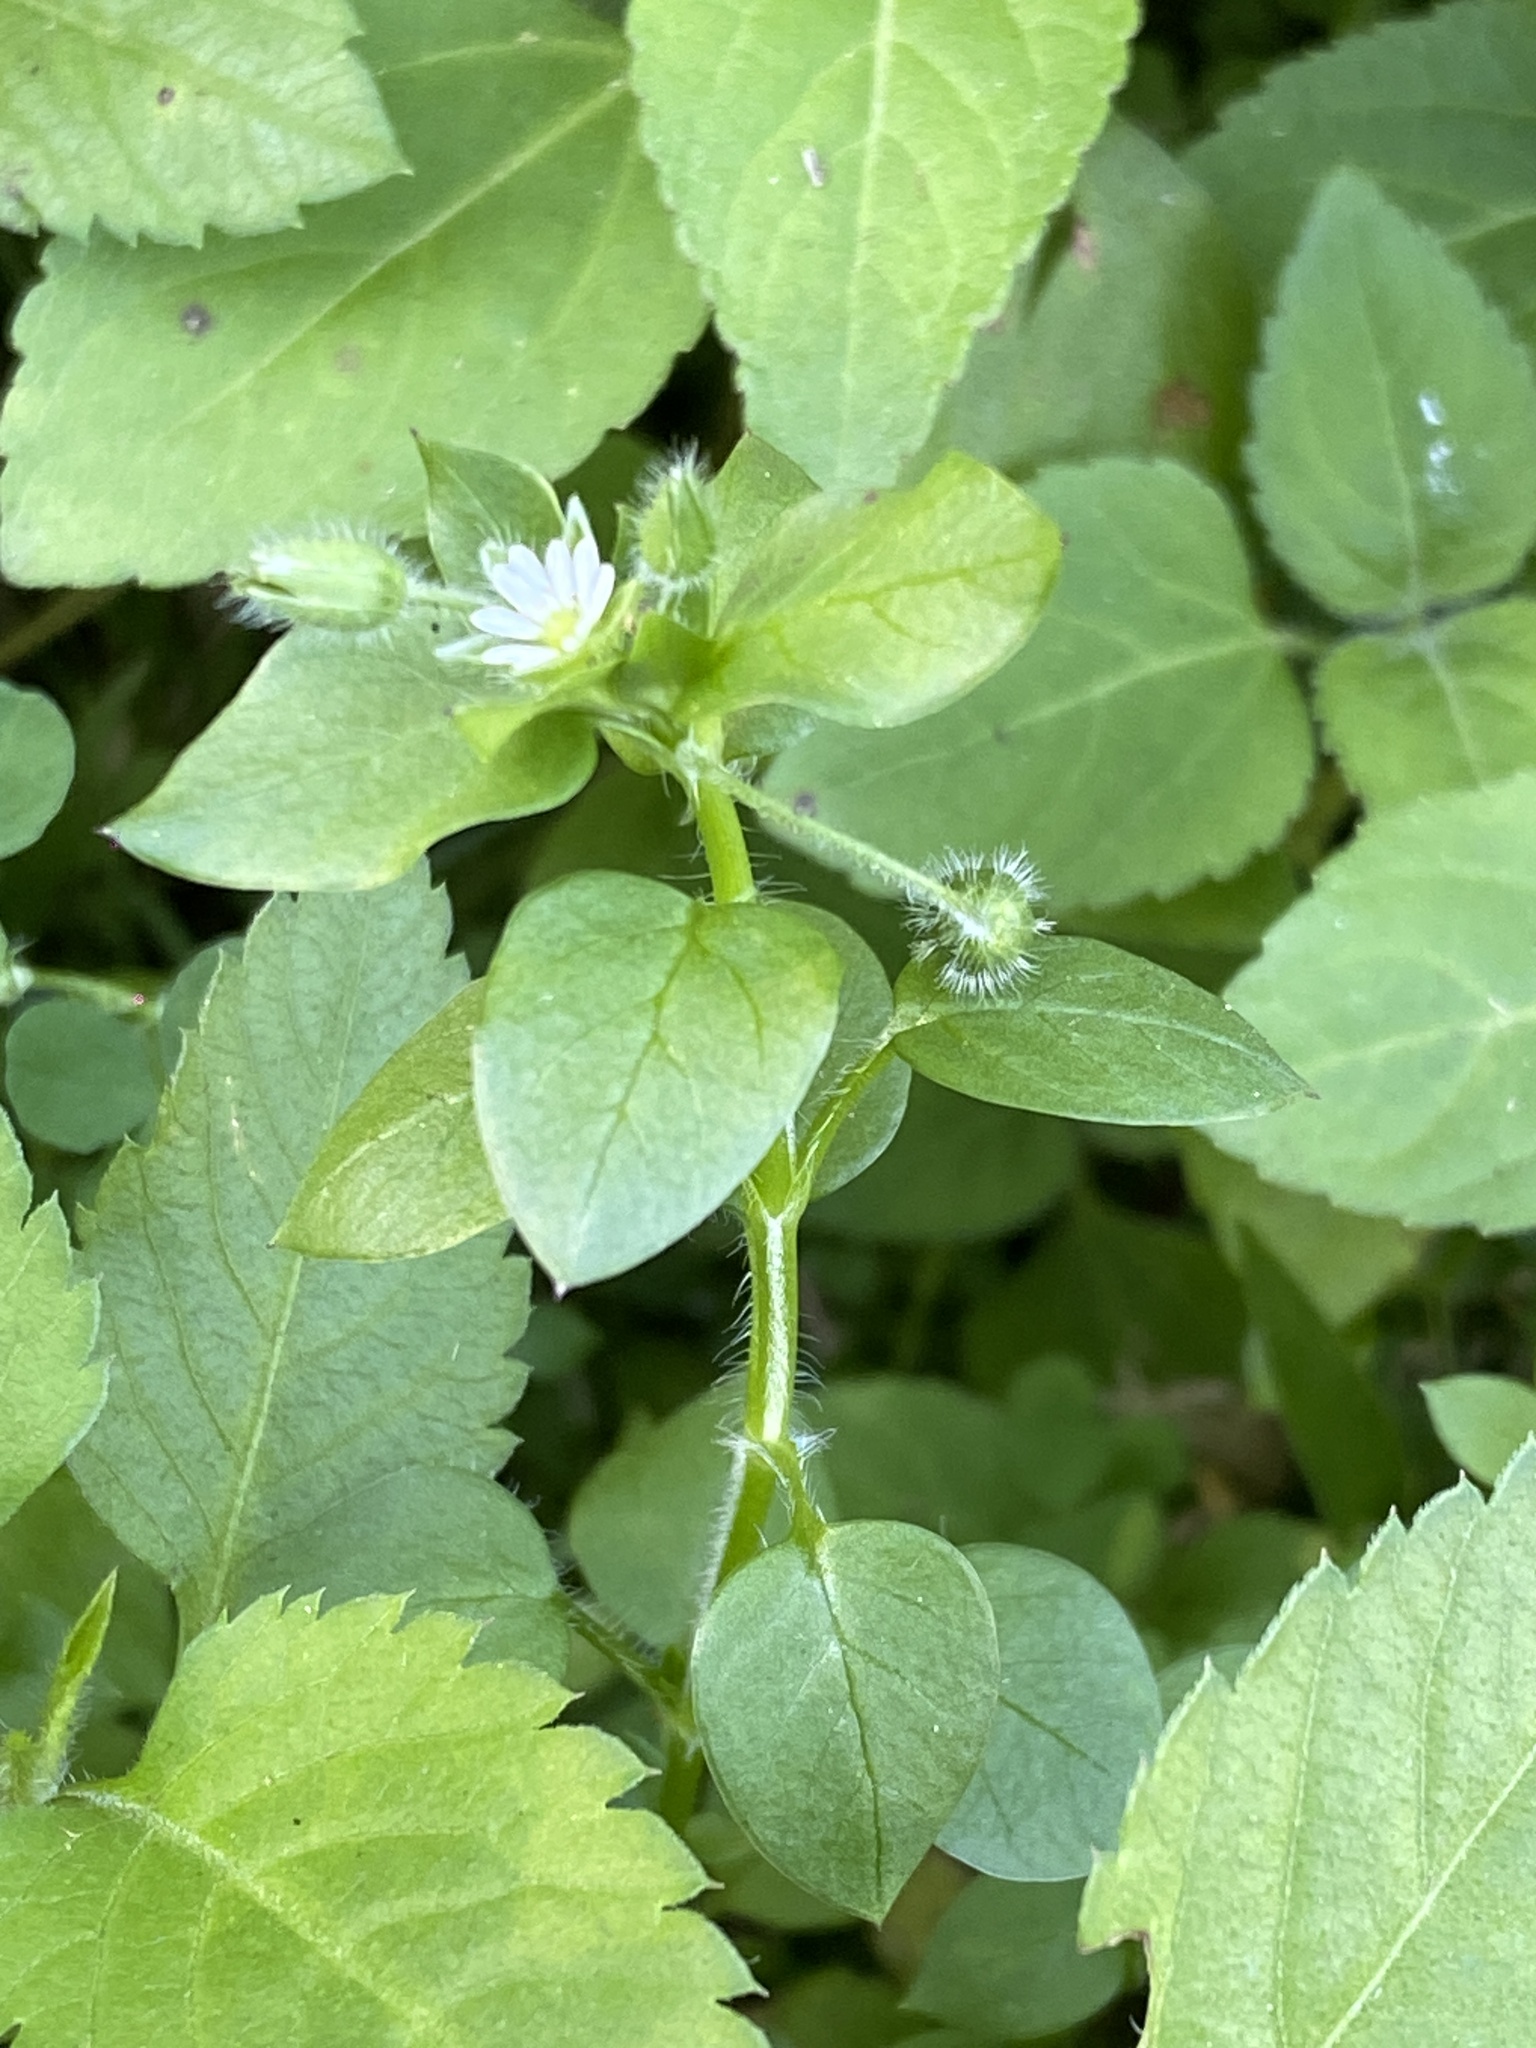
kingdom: Plantae
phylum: Tracheophyta
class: Magnoliopsida
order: Caryophyllales
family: Caryophyllaceae
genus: Stellaria
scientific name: Stellaria media
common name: Common chickweed
